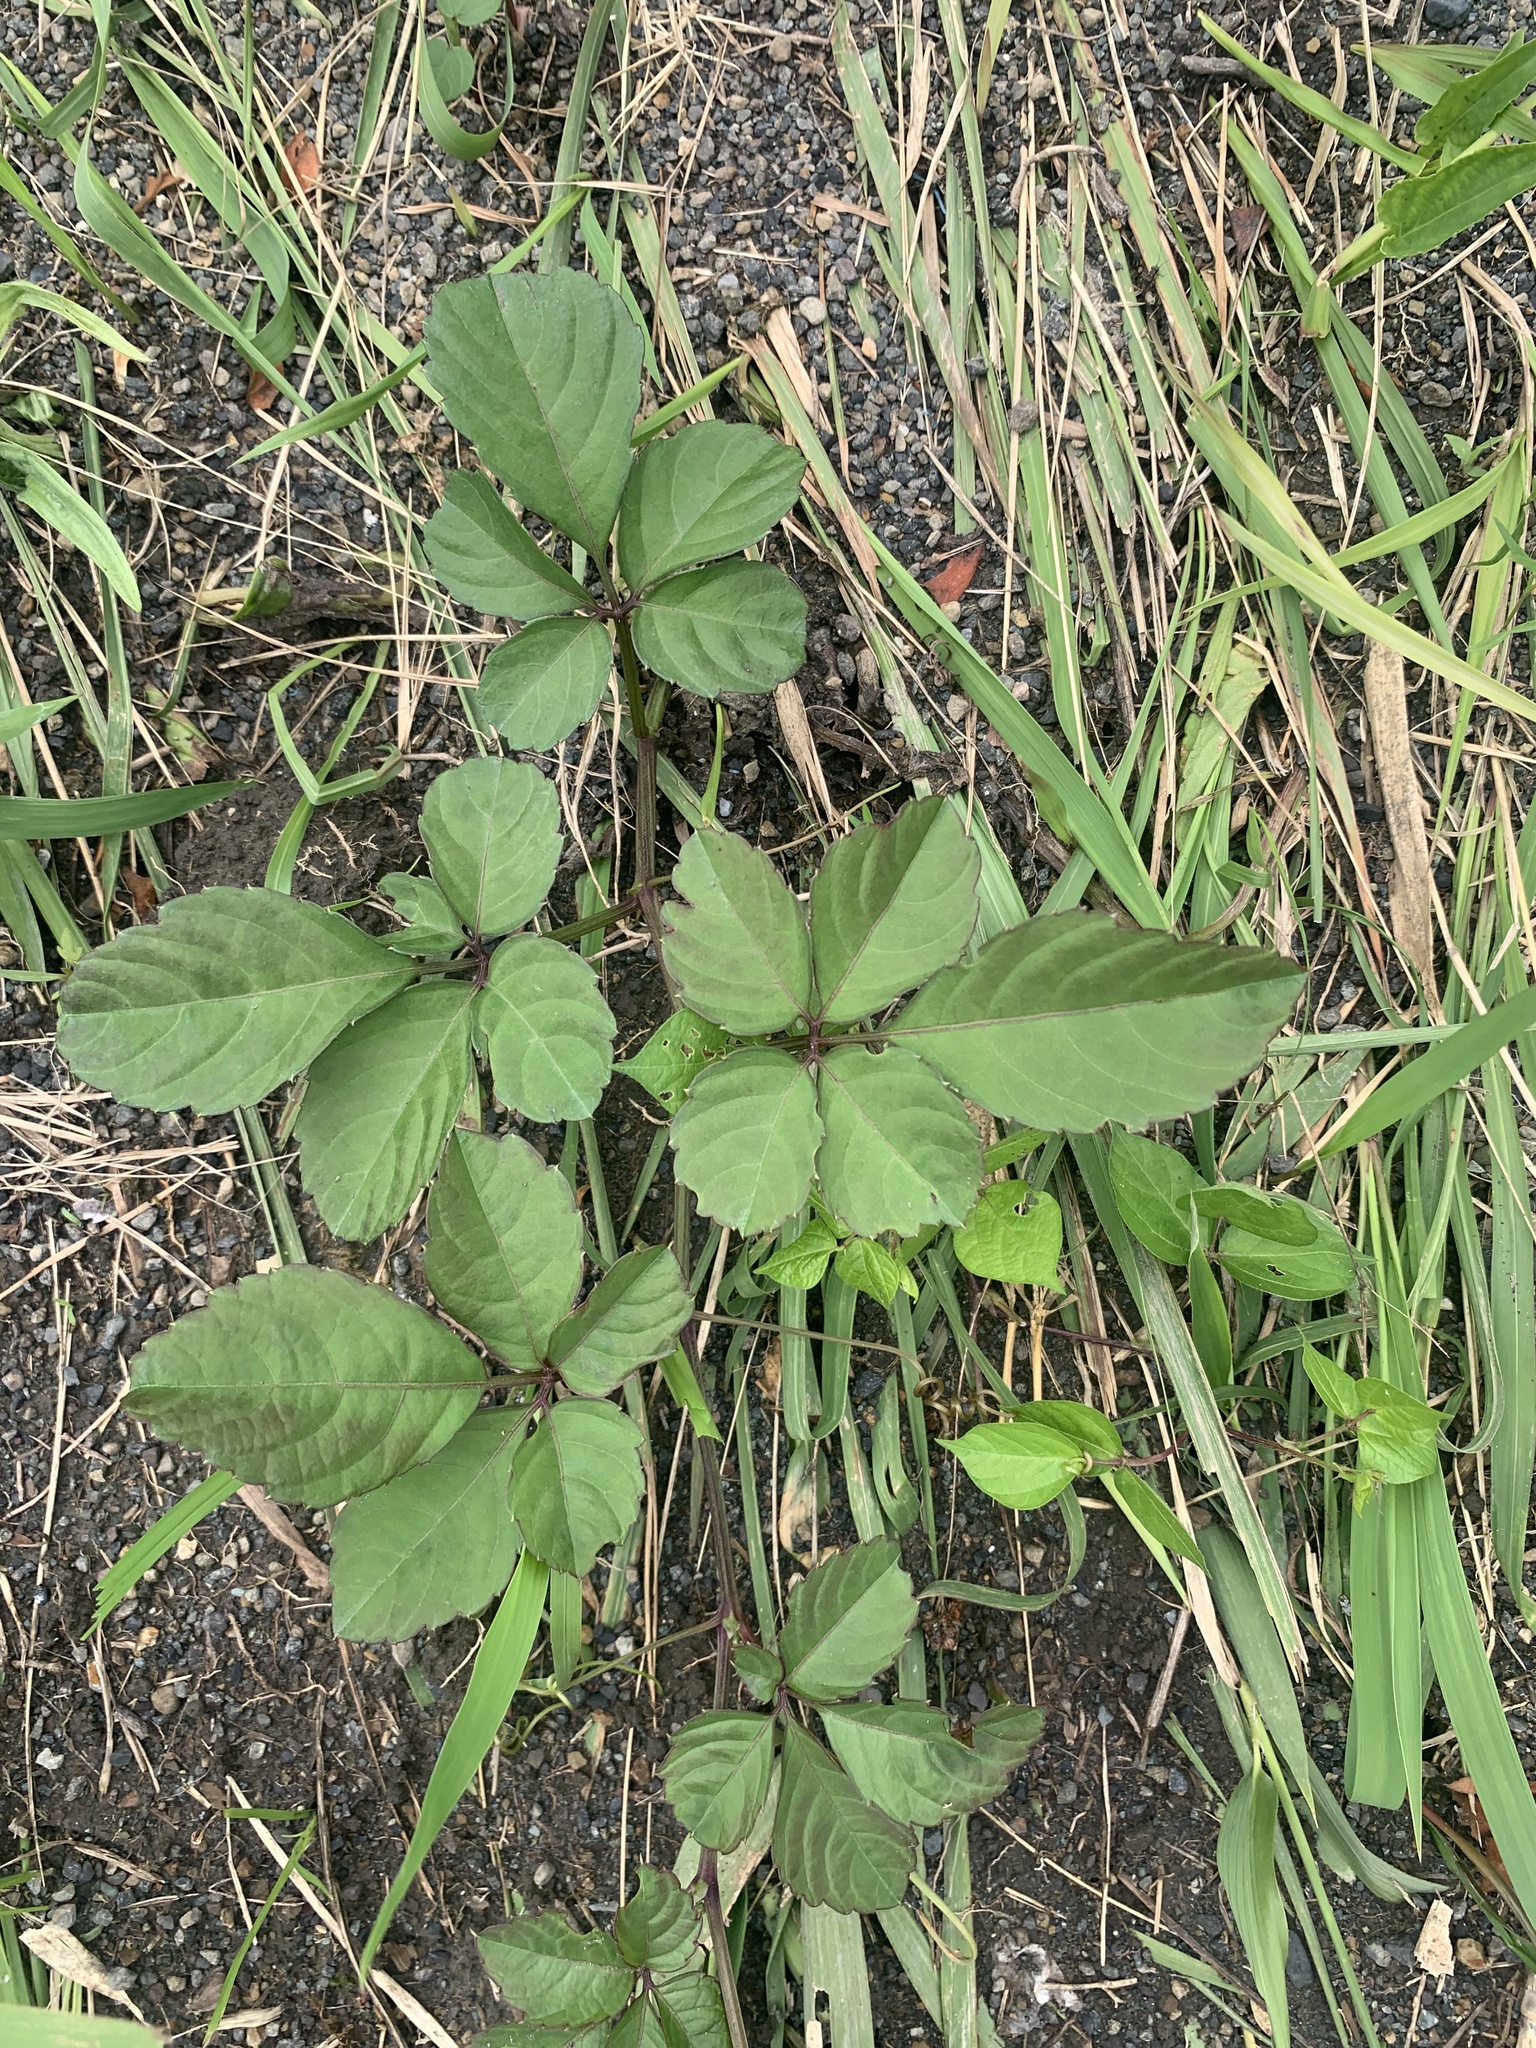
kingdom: Plantae
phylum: Tracheophyta
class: Magnoliopsida
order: Vitales
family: Vitaceae
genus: Causonis
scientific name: Causonis japonica
